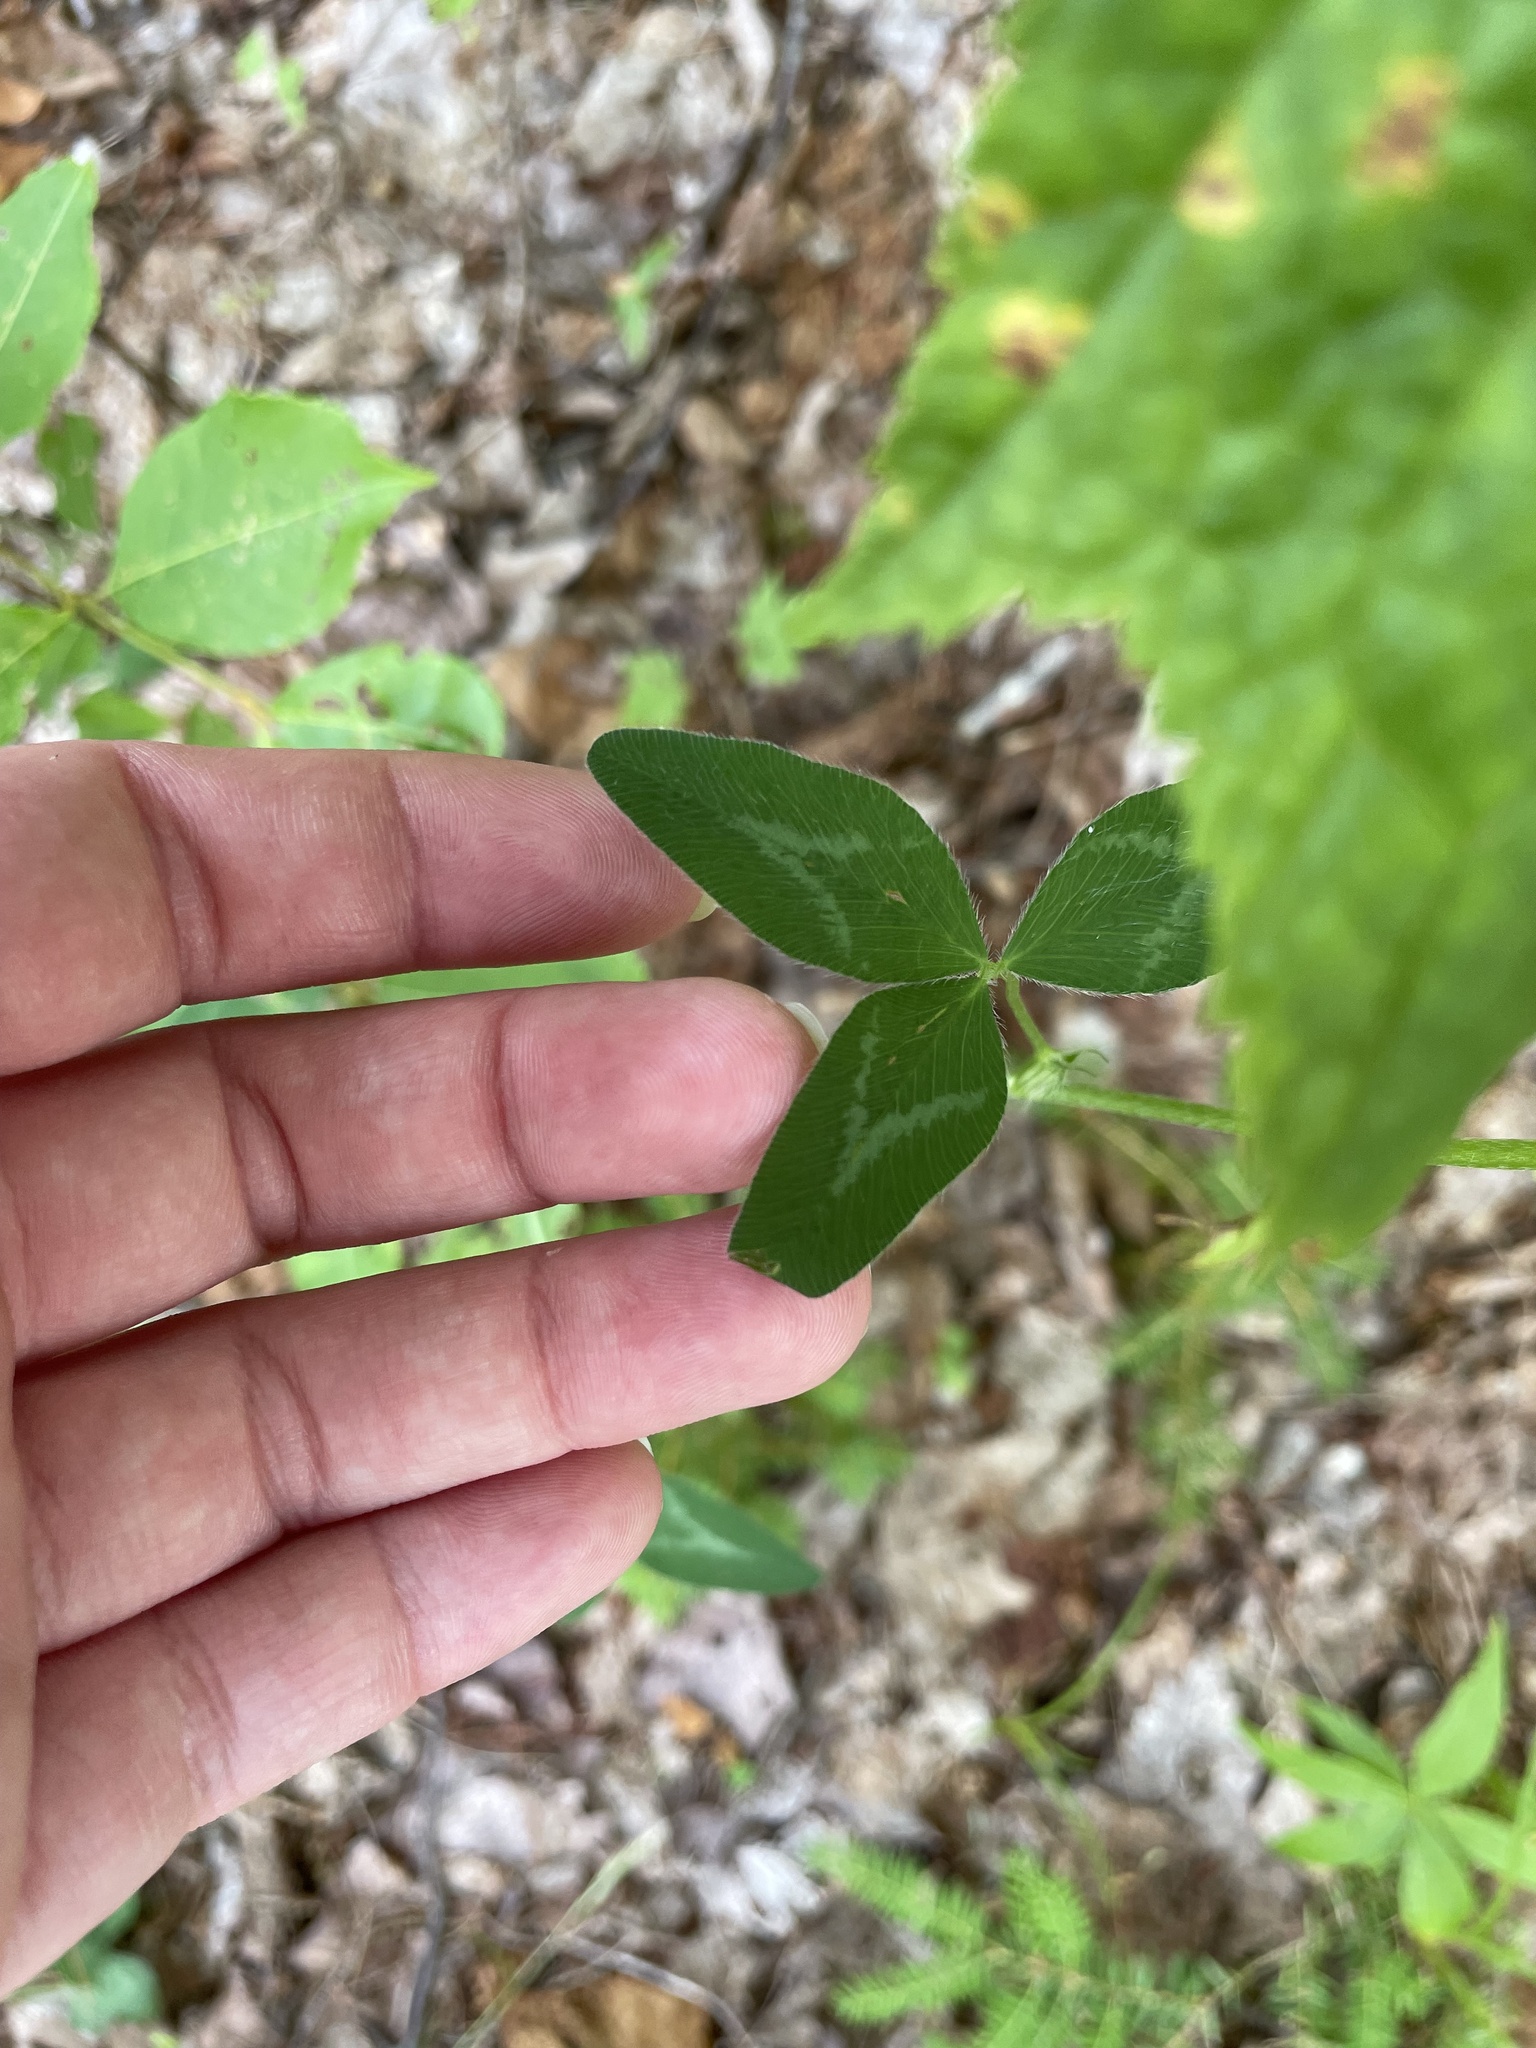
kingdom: Plantae
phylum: Tracheophyta
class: Magnoliopsida
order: Fabales
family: Fabaceae
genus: Trifolium
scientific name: Trifolium pratense
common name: Red clover
